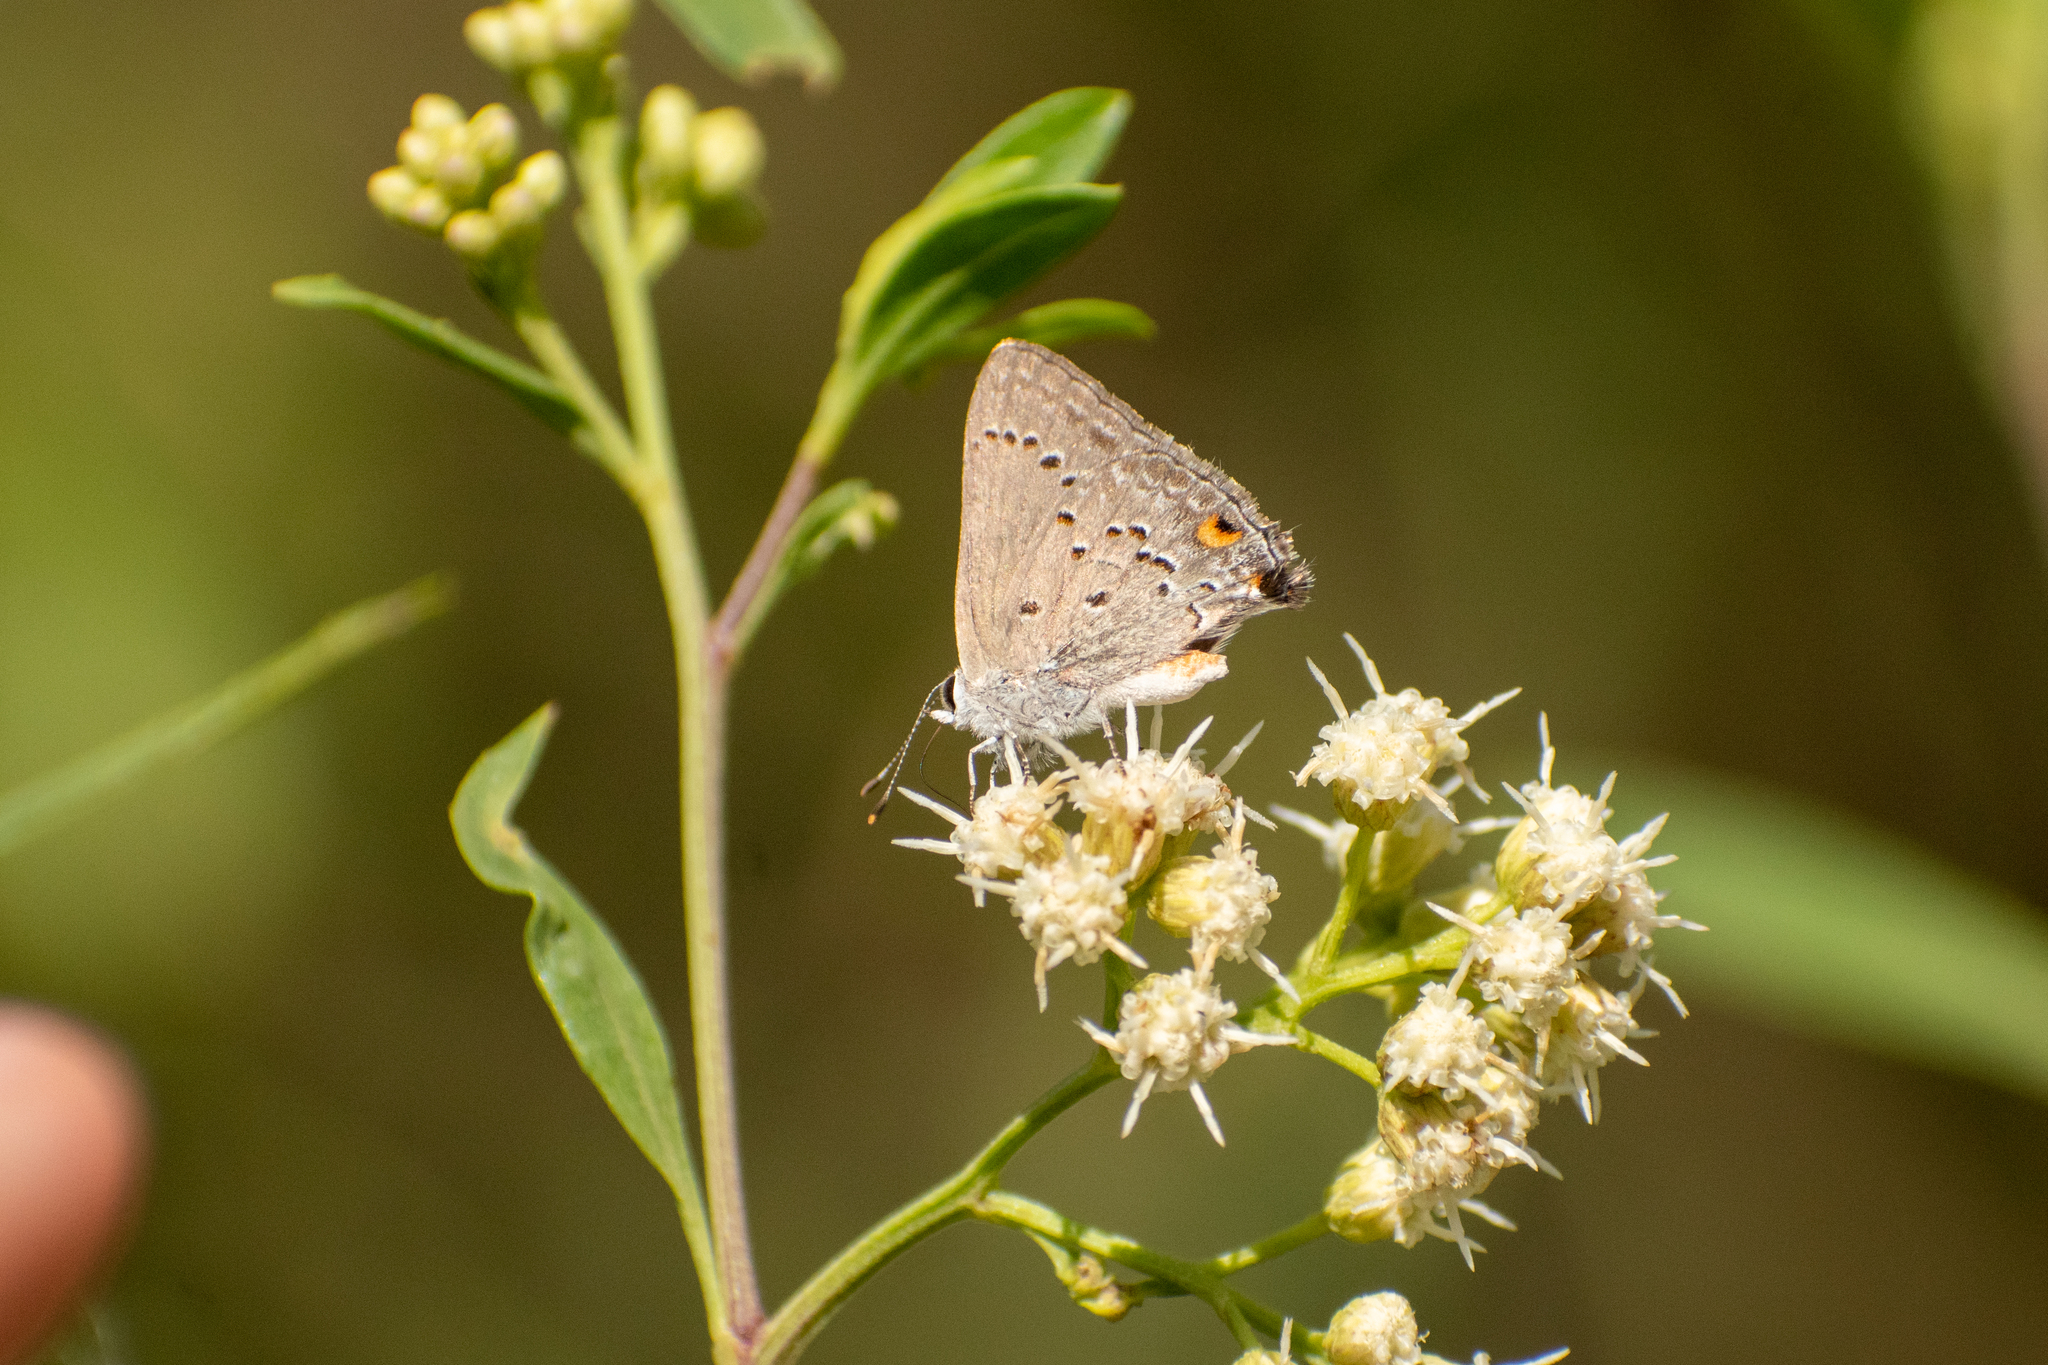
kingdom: Animalia
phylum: Arthropoda
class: Insecta
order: Lepidoptera
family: Lycaenidae
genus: Strymon
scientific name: Strymon eurytulus
